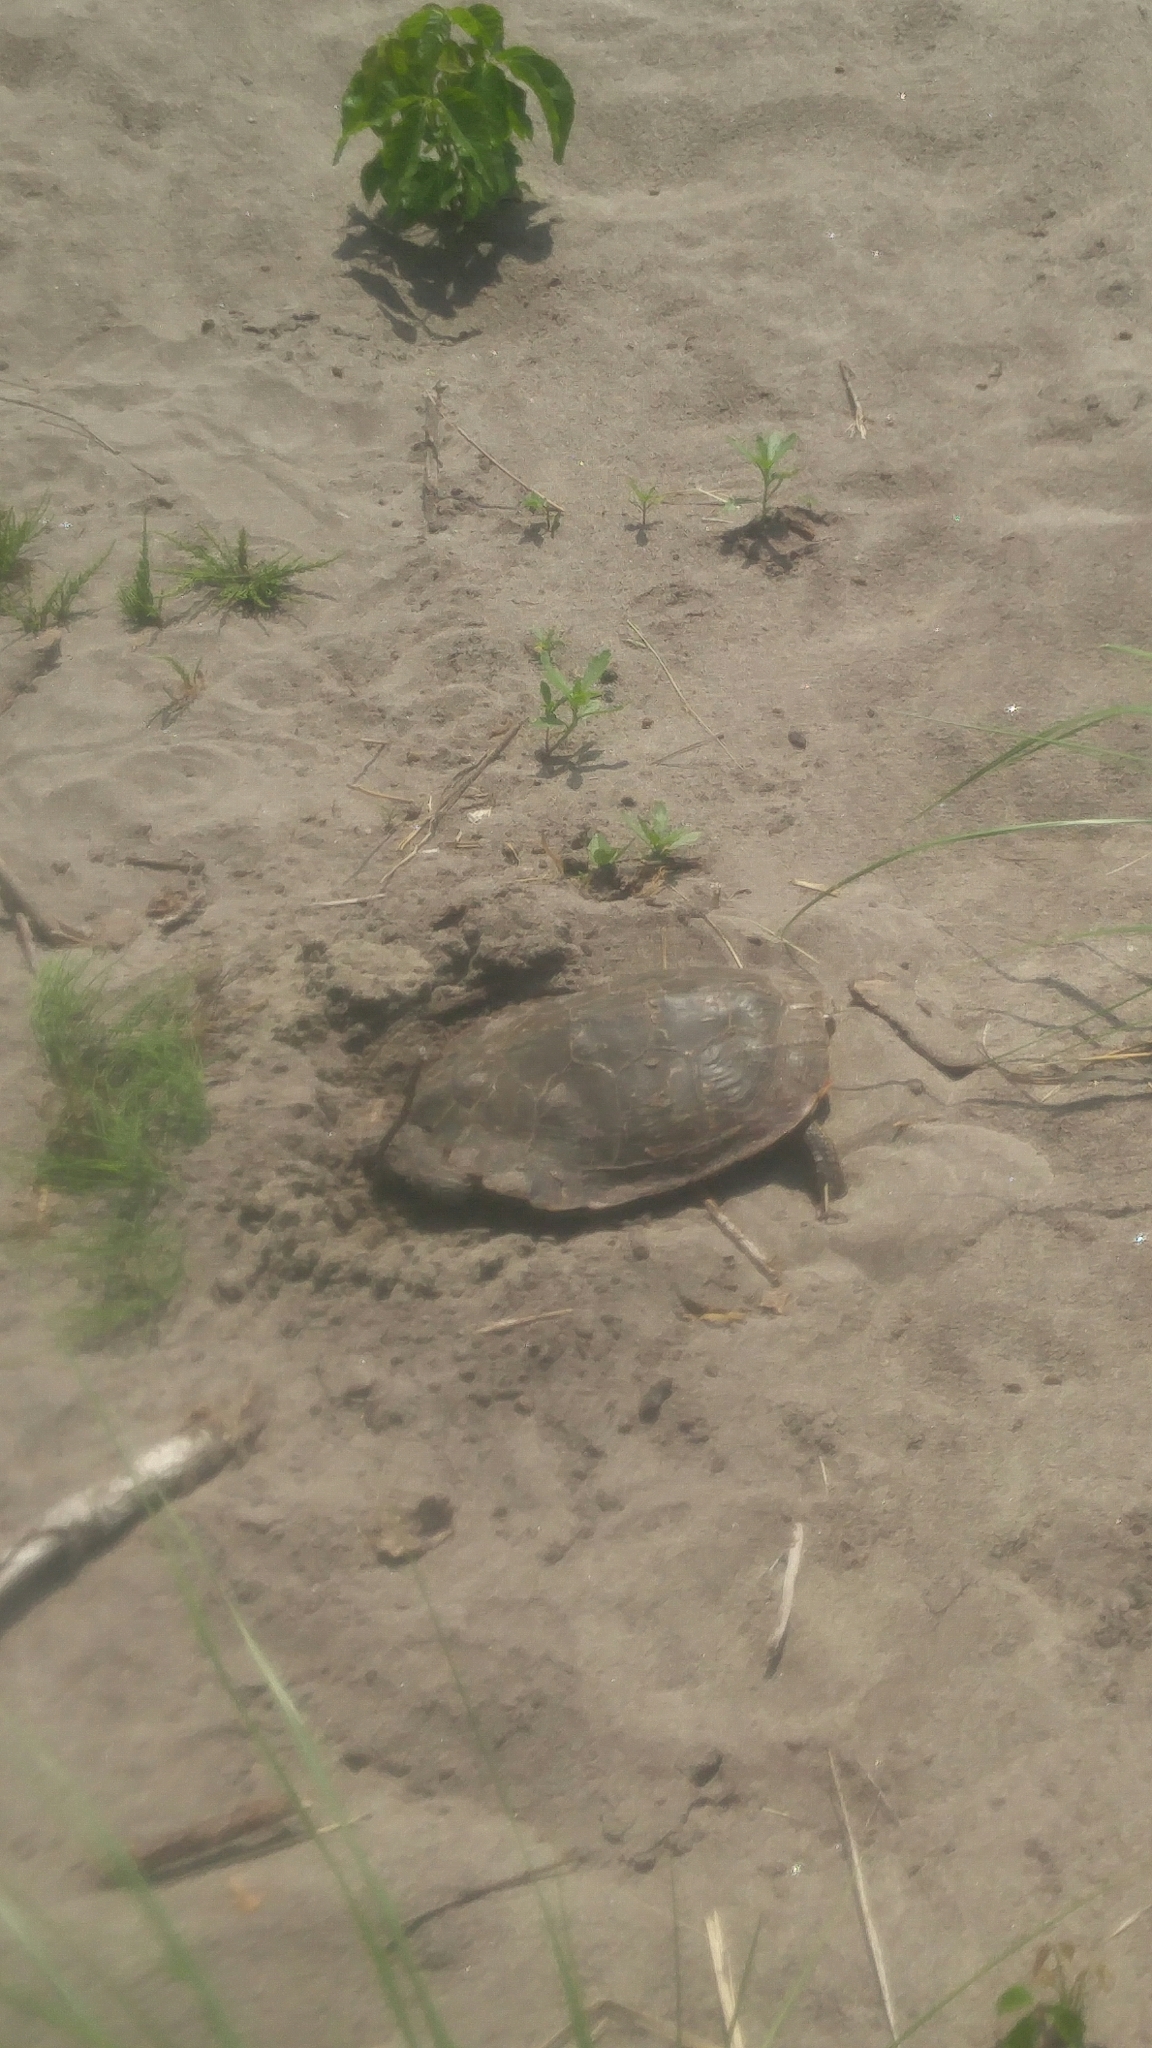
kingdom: Animalia
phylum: Chordata
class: Testudines
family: Emydidae
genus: Graptemys
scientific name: Graptemys geographica
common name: Common map turtle
